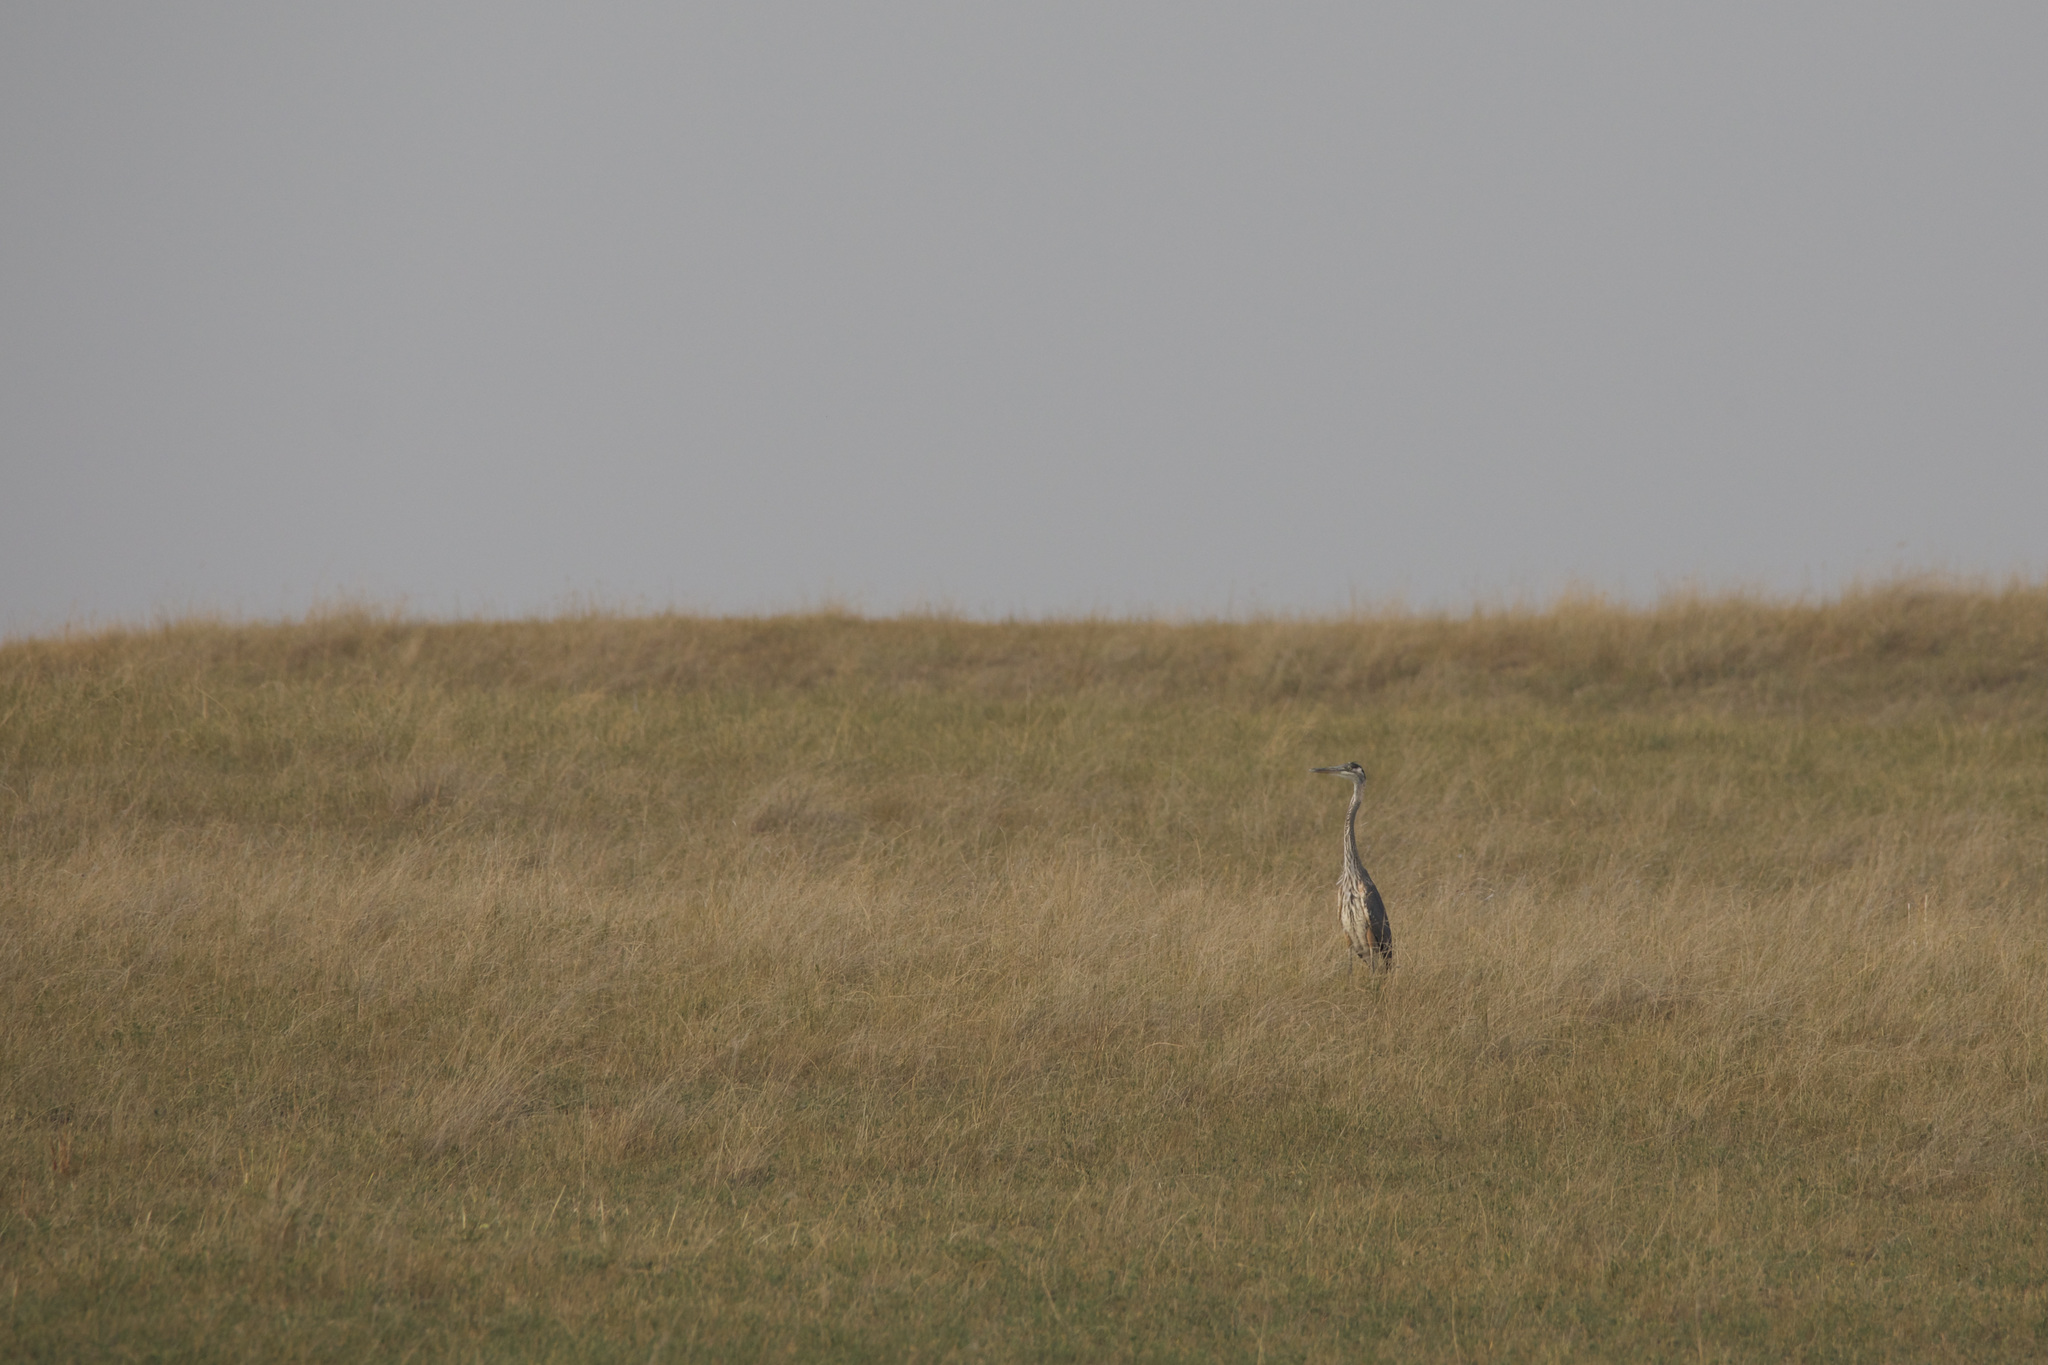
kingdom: Animalia
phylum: Chordata
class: Aves
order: Pelecaniformes
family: Ardeidae
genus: Ardea
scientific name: Ardea herodias
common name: Great blue heron
